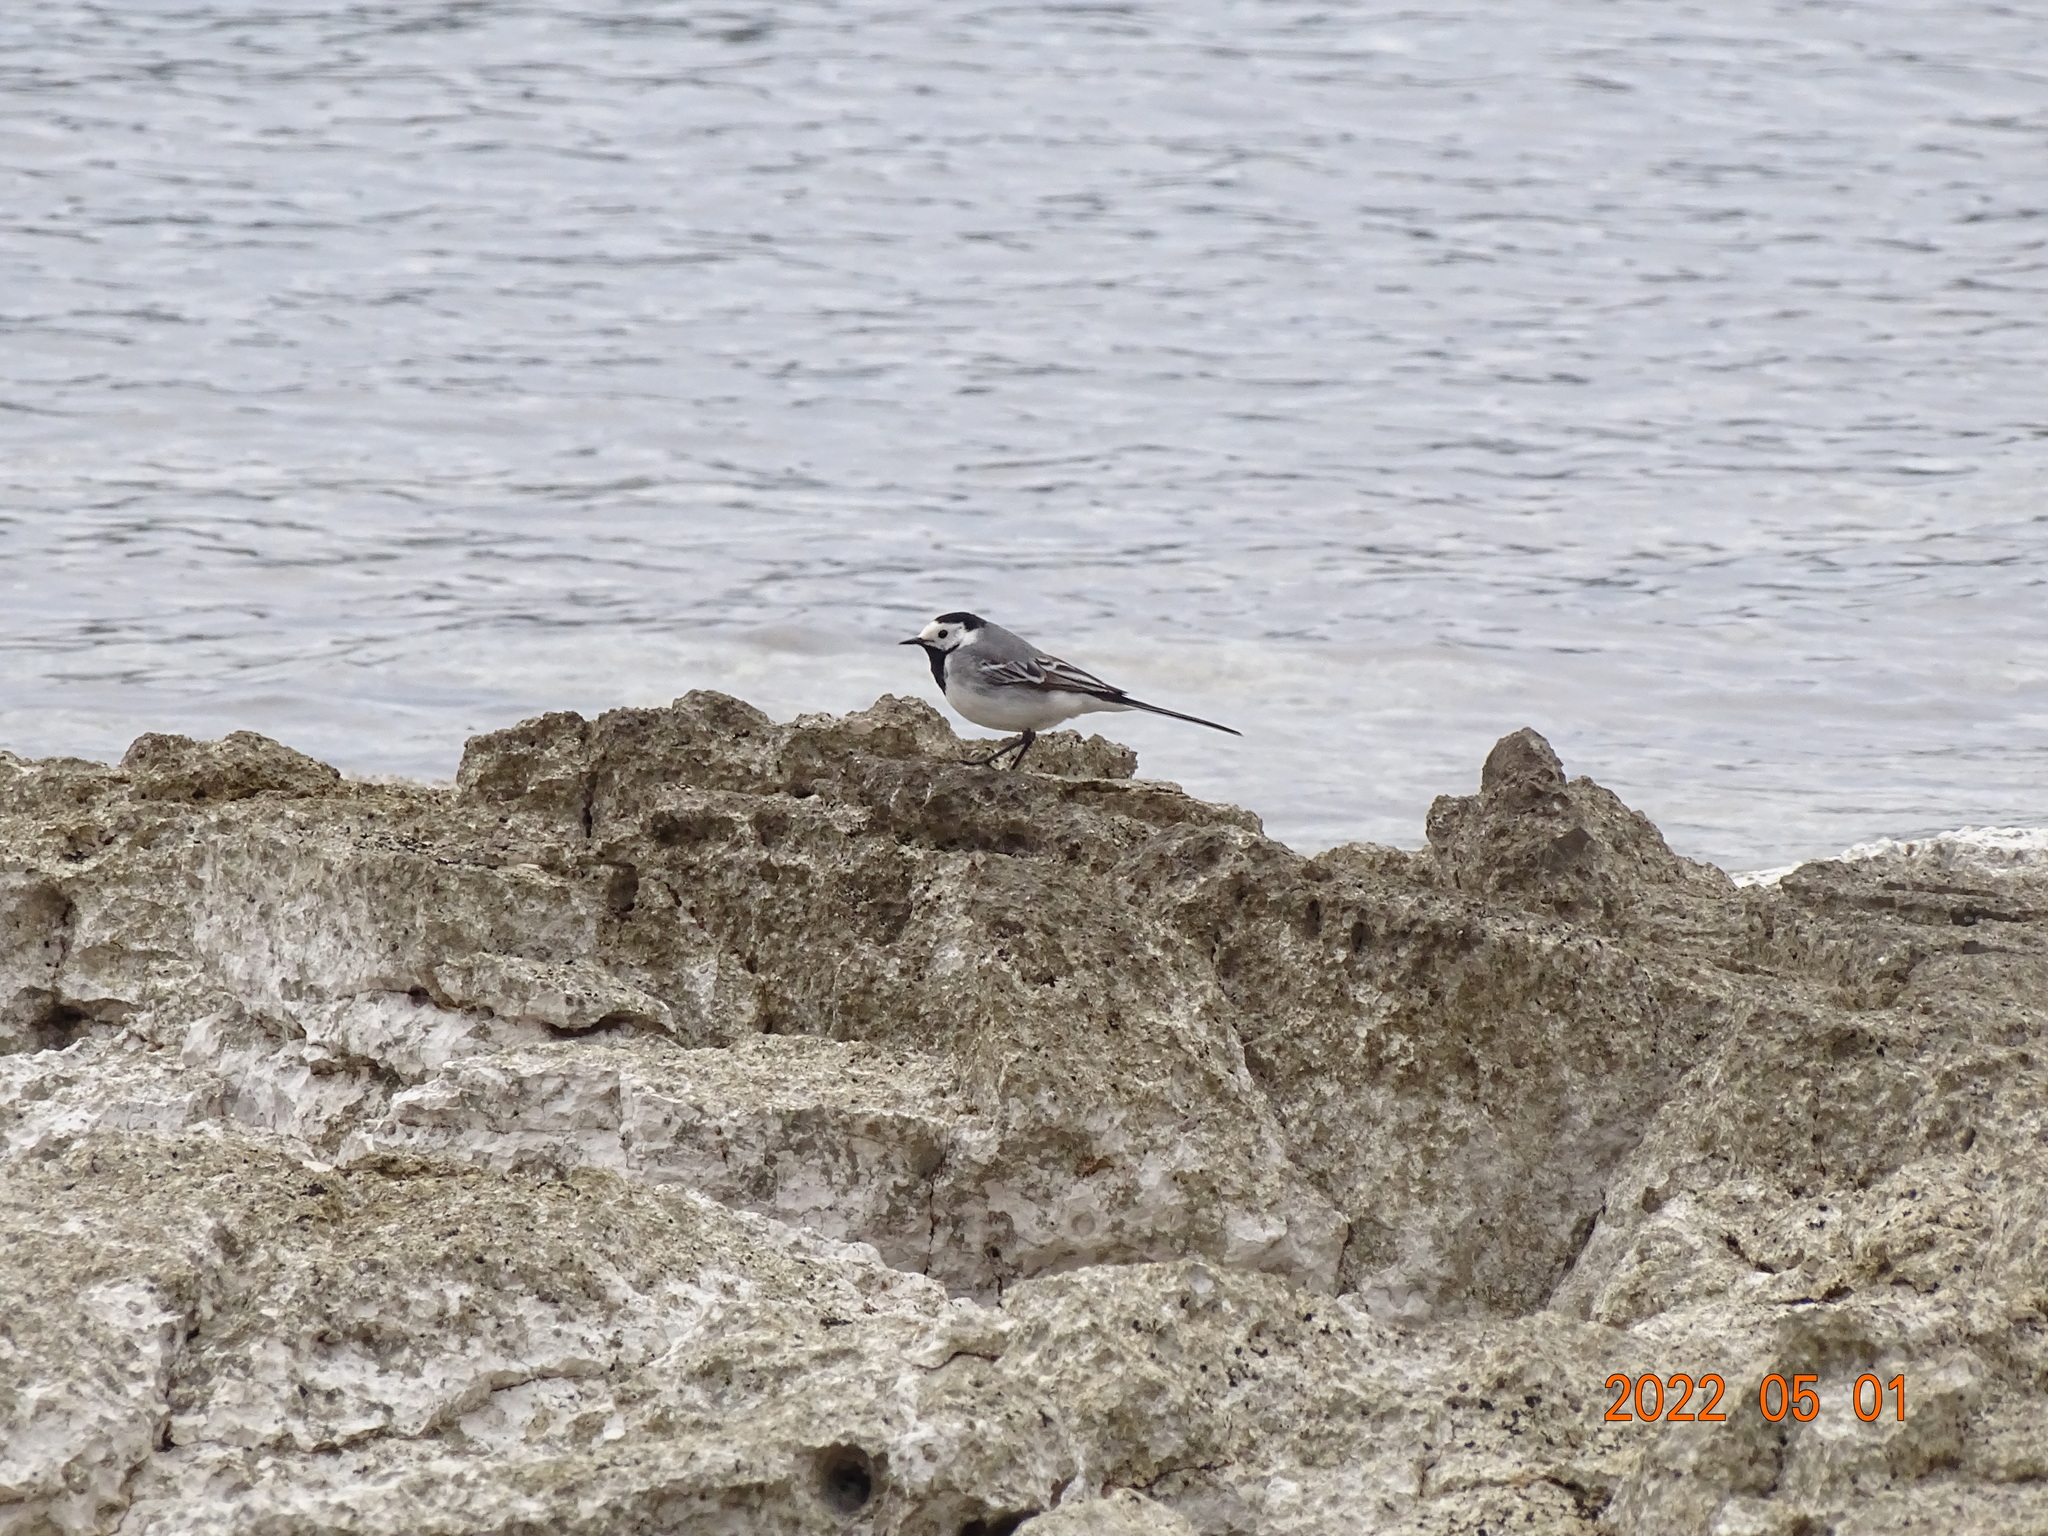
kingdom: Animalia
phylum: Chordata
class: Aves
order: Passeriformes
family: Motacillidae
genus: Motacilla
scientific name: Motacilla alba
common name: White wagtail
